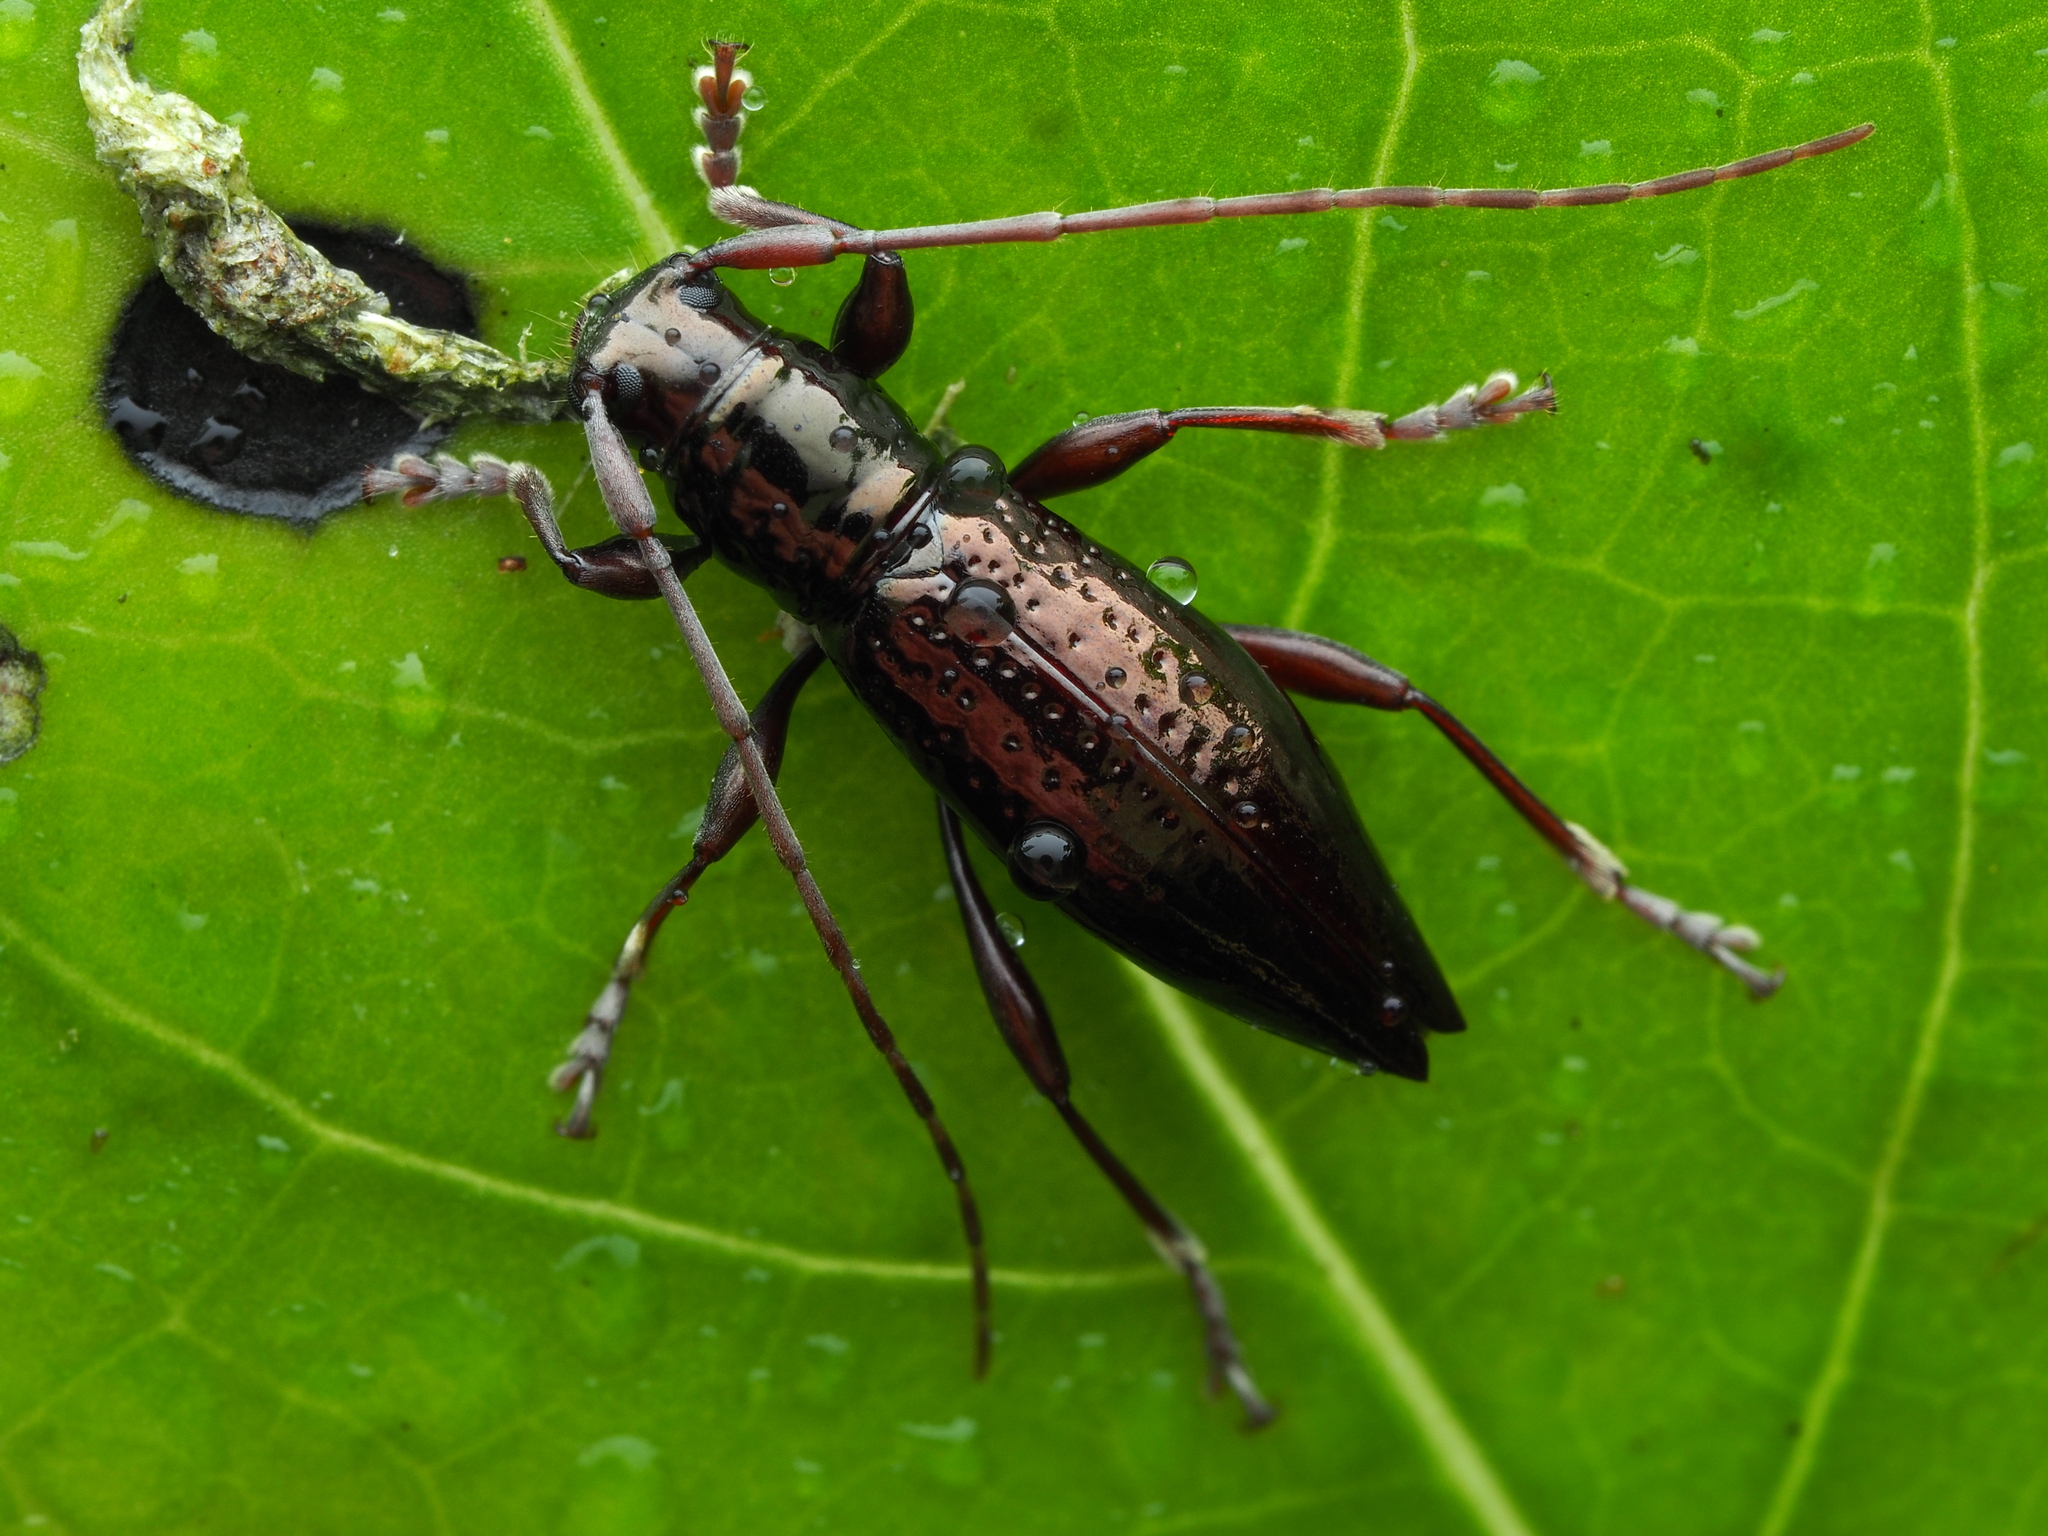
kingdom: Animalia
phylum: Arthropoda
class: Insecta
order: Coleoptera
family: Cerambycidae
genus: Xylotoles
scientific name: Xylotoles nudus
